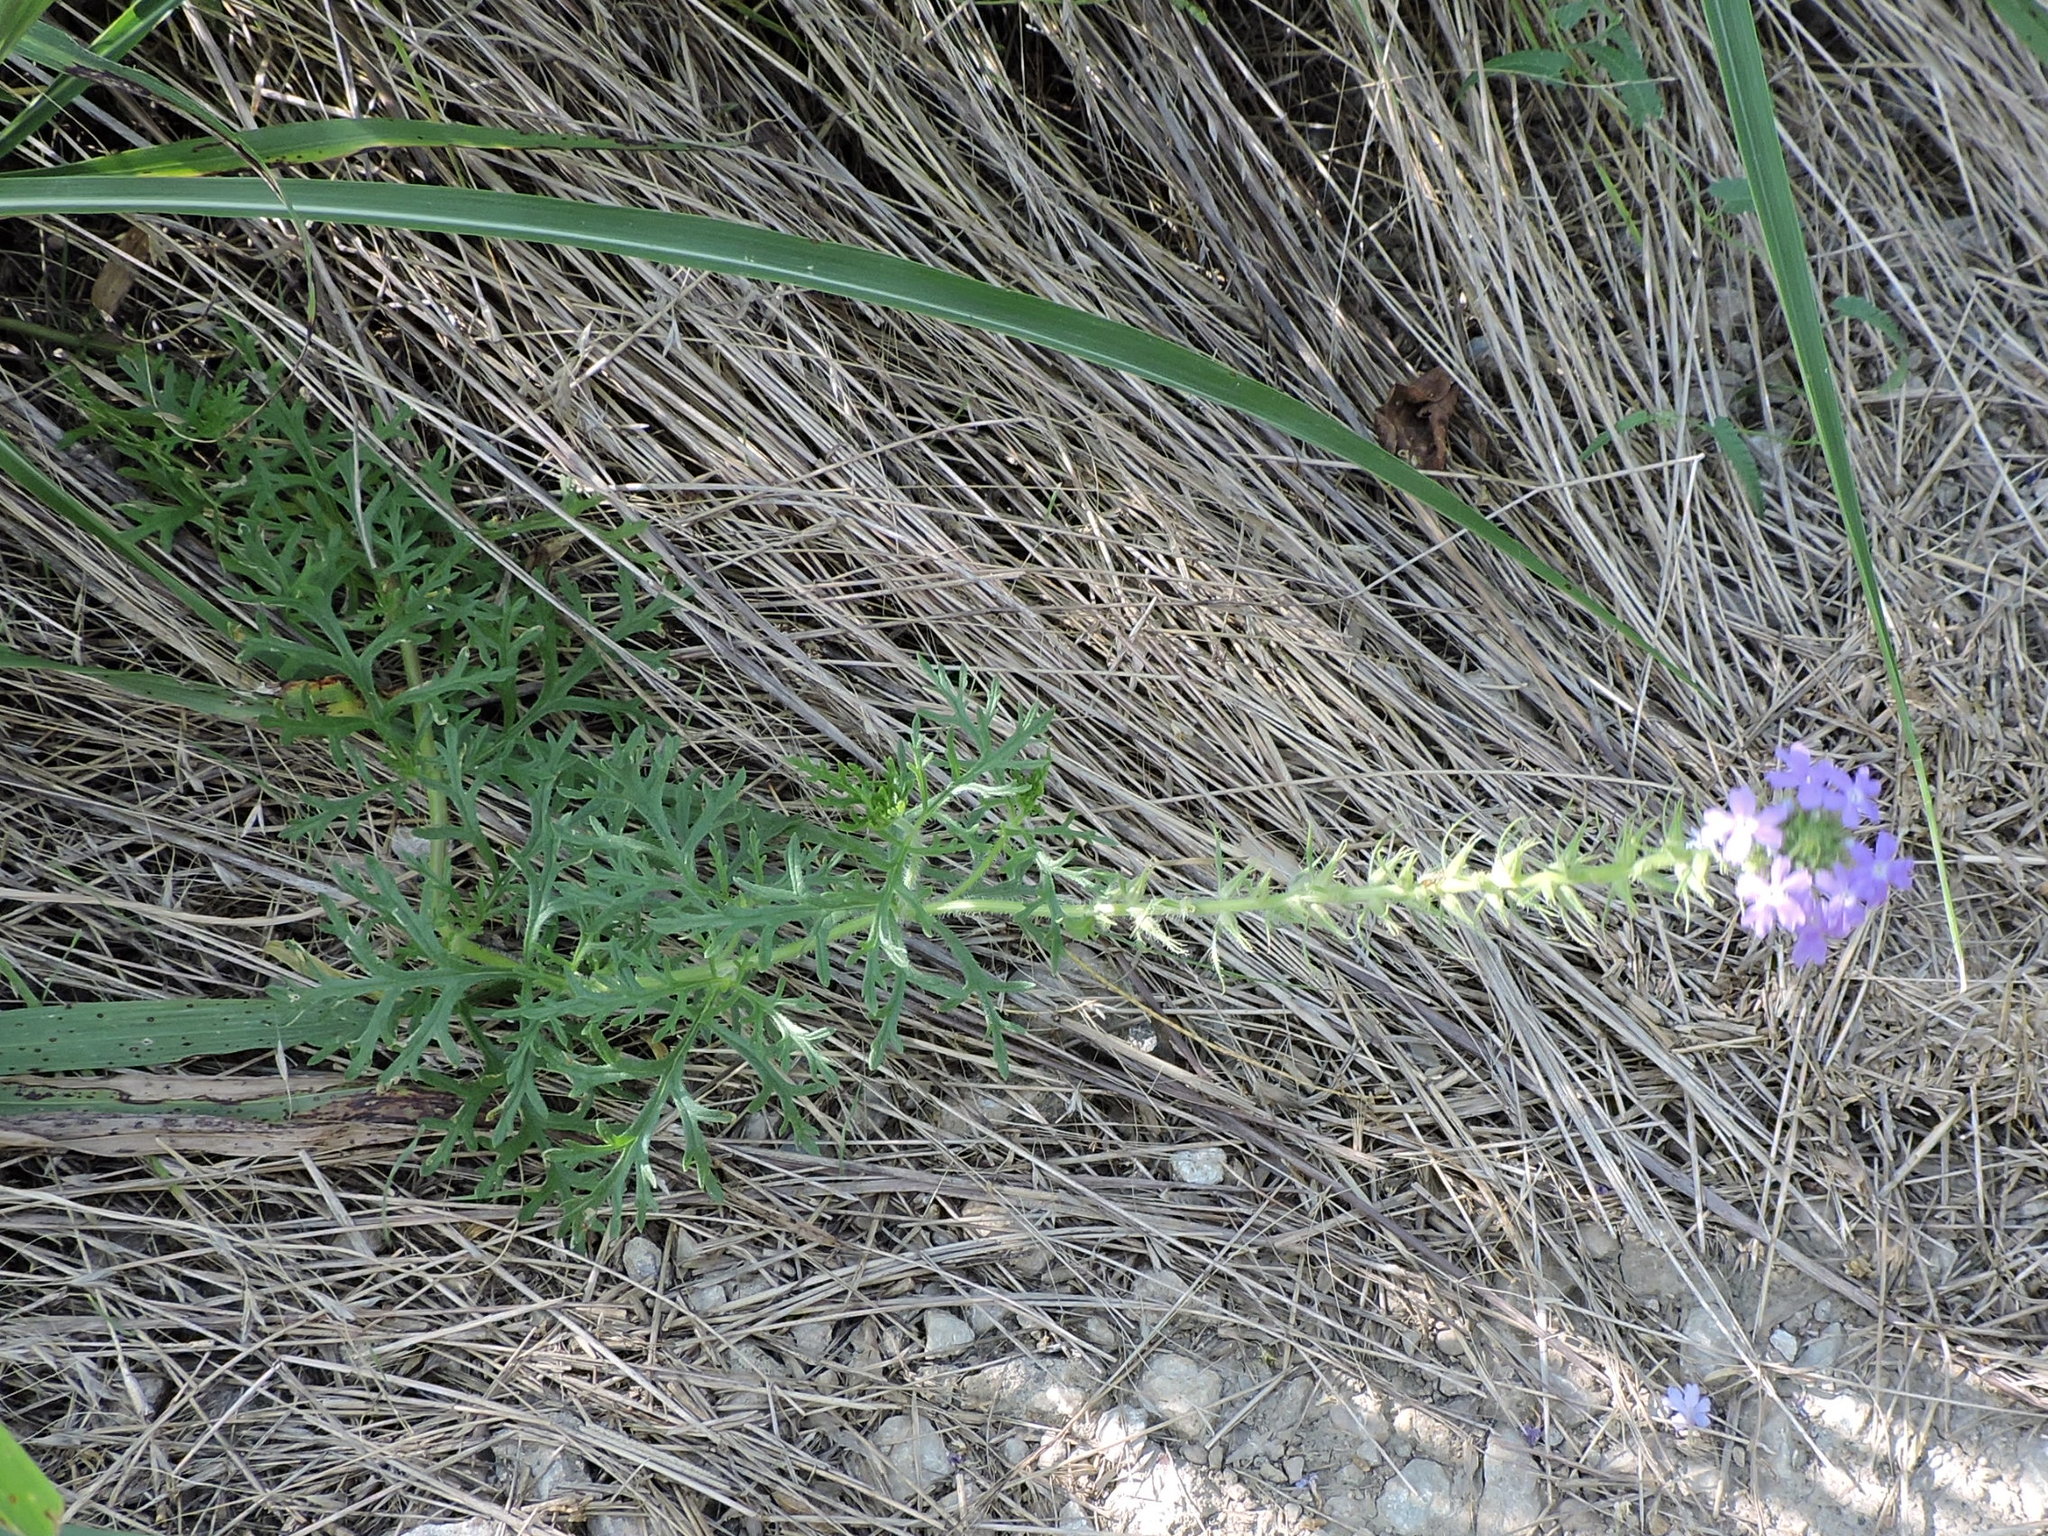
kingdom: Plantae
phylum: Tracheophyta
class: Magnoliopsida
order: Lamiales
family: Verbenaceae
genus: Verbena
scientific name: Verbena bipinnatifida
